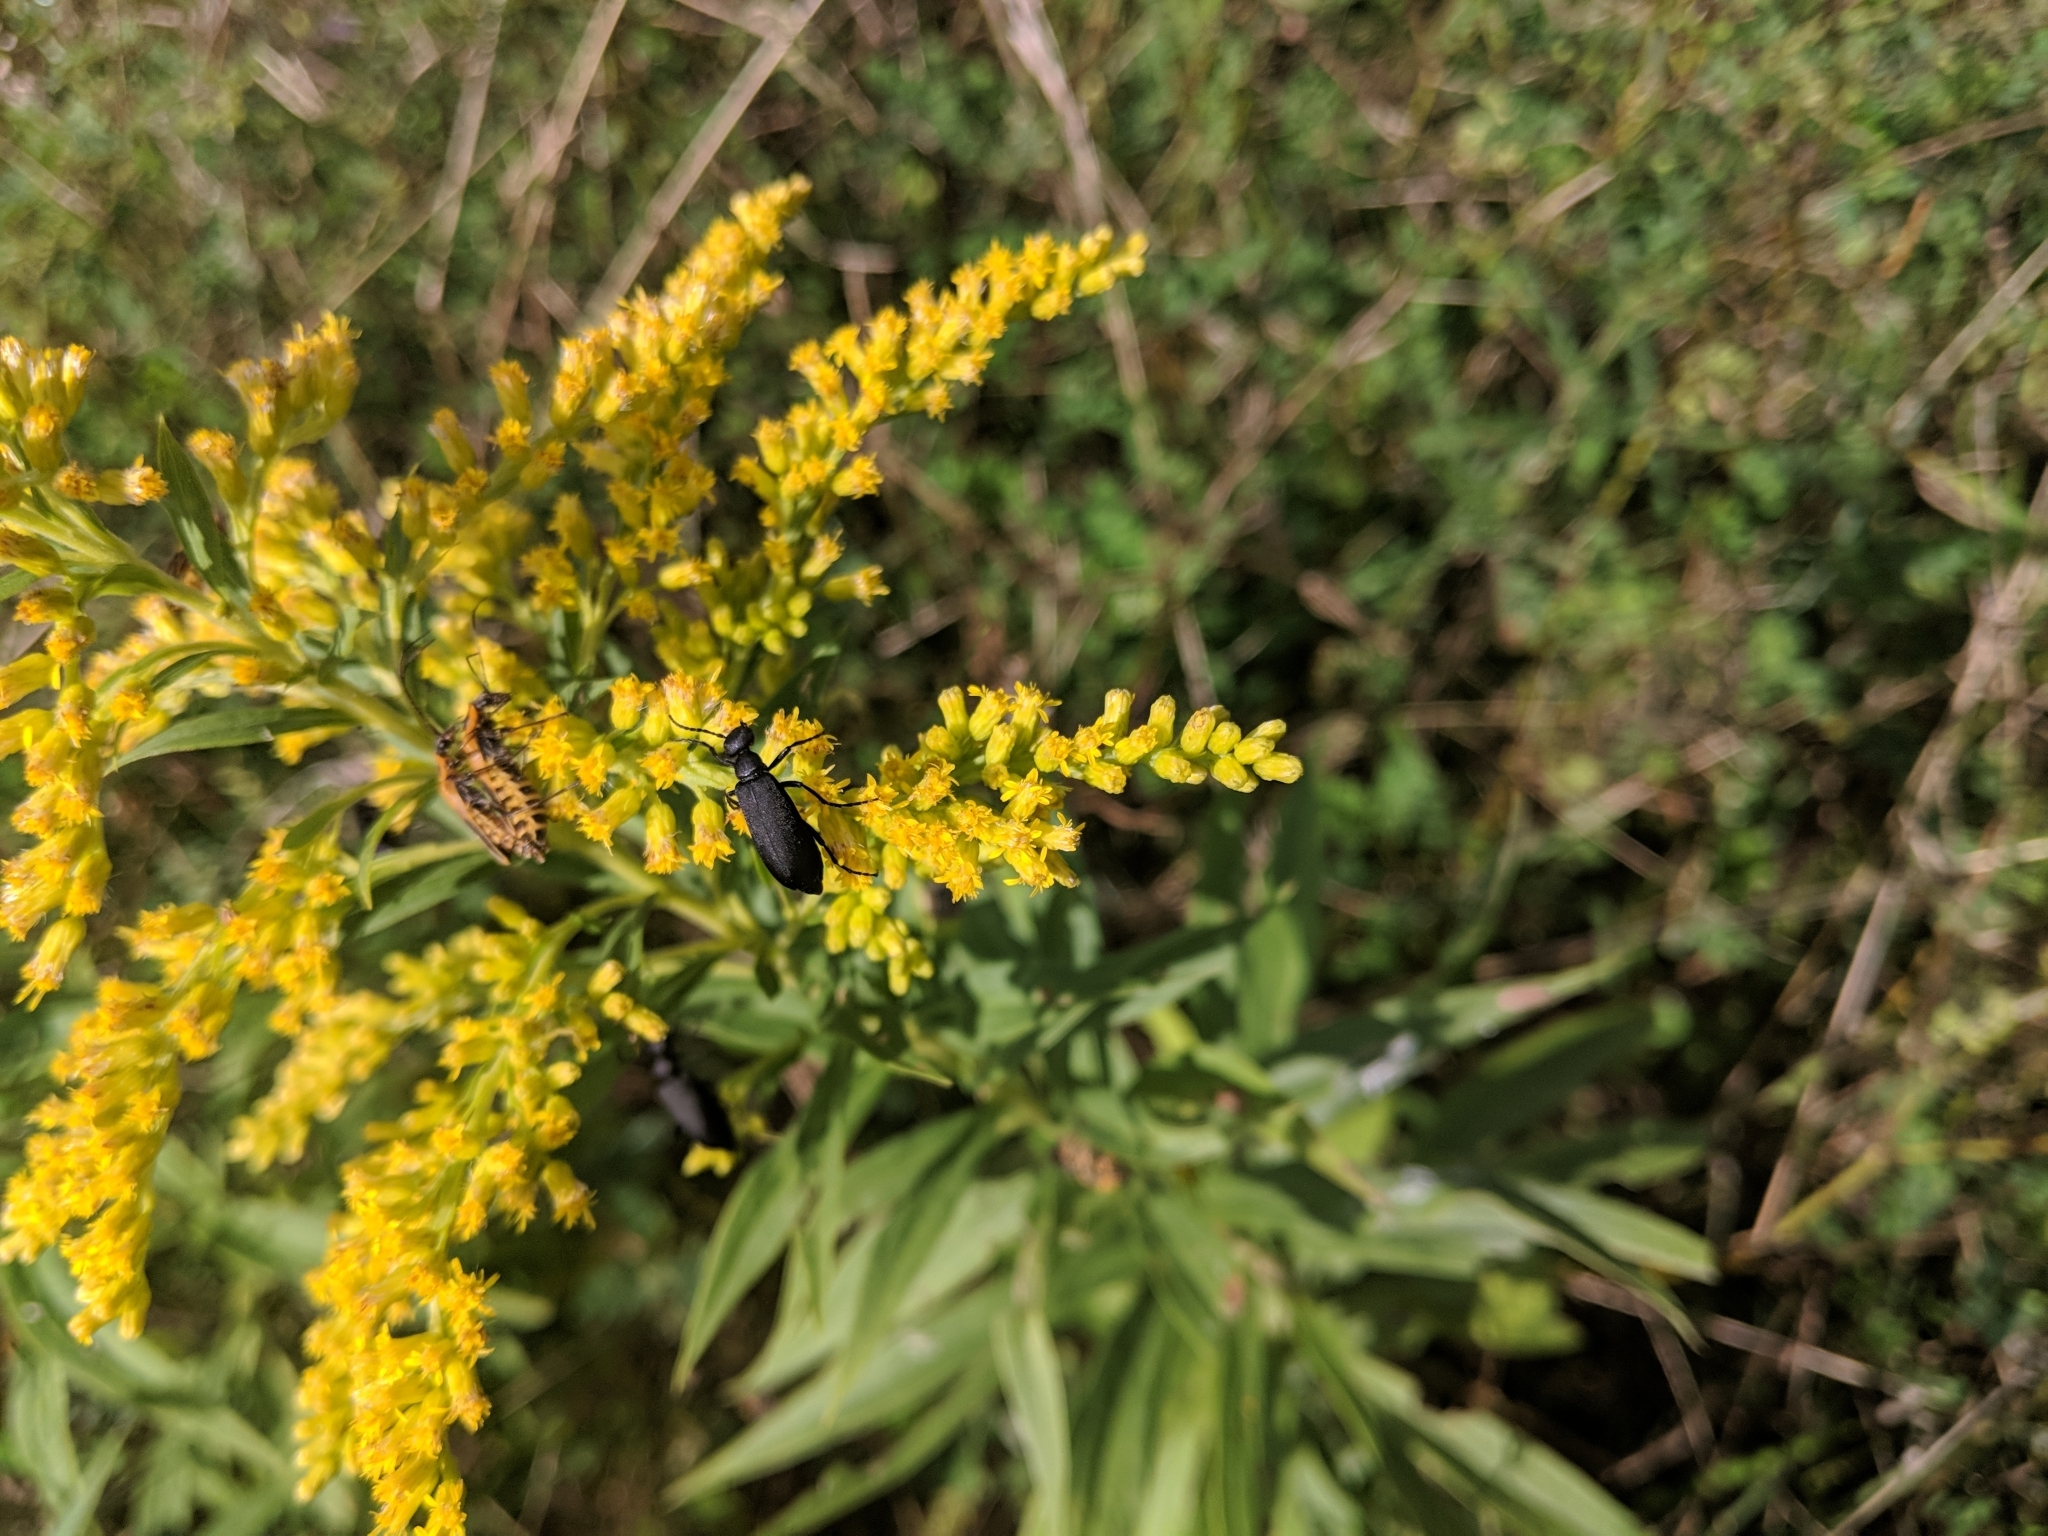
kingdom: Animalia
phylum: Arthropoda
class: Insecta
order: Coleoptera
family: Meloidae
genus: Epicauta
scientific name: Epicauta pensylvanica
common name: Black blister beetle
